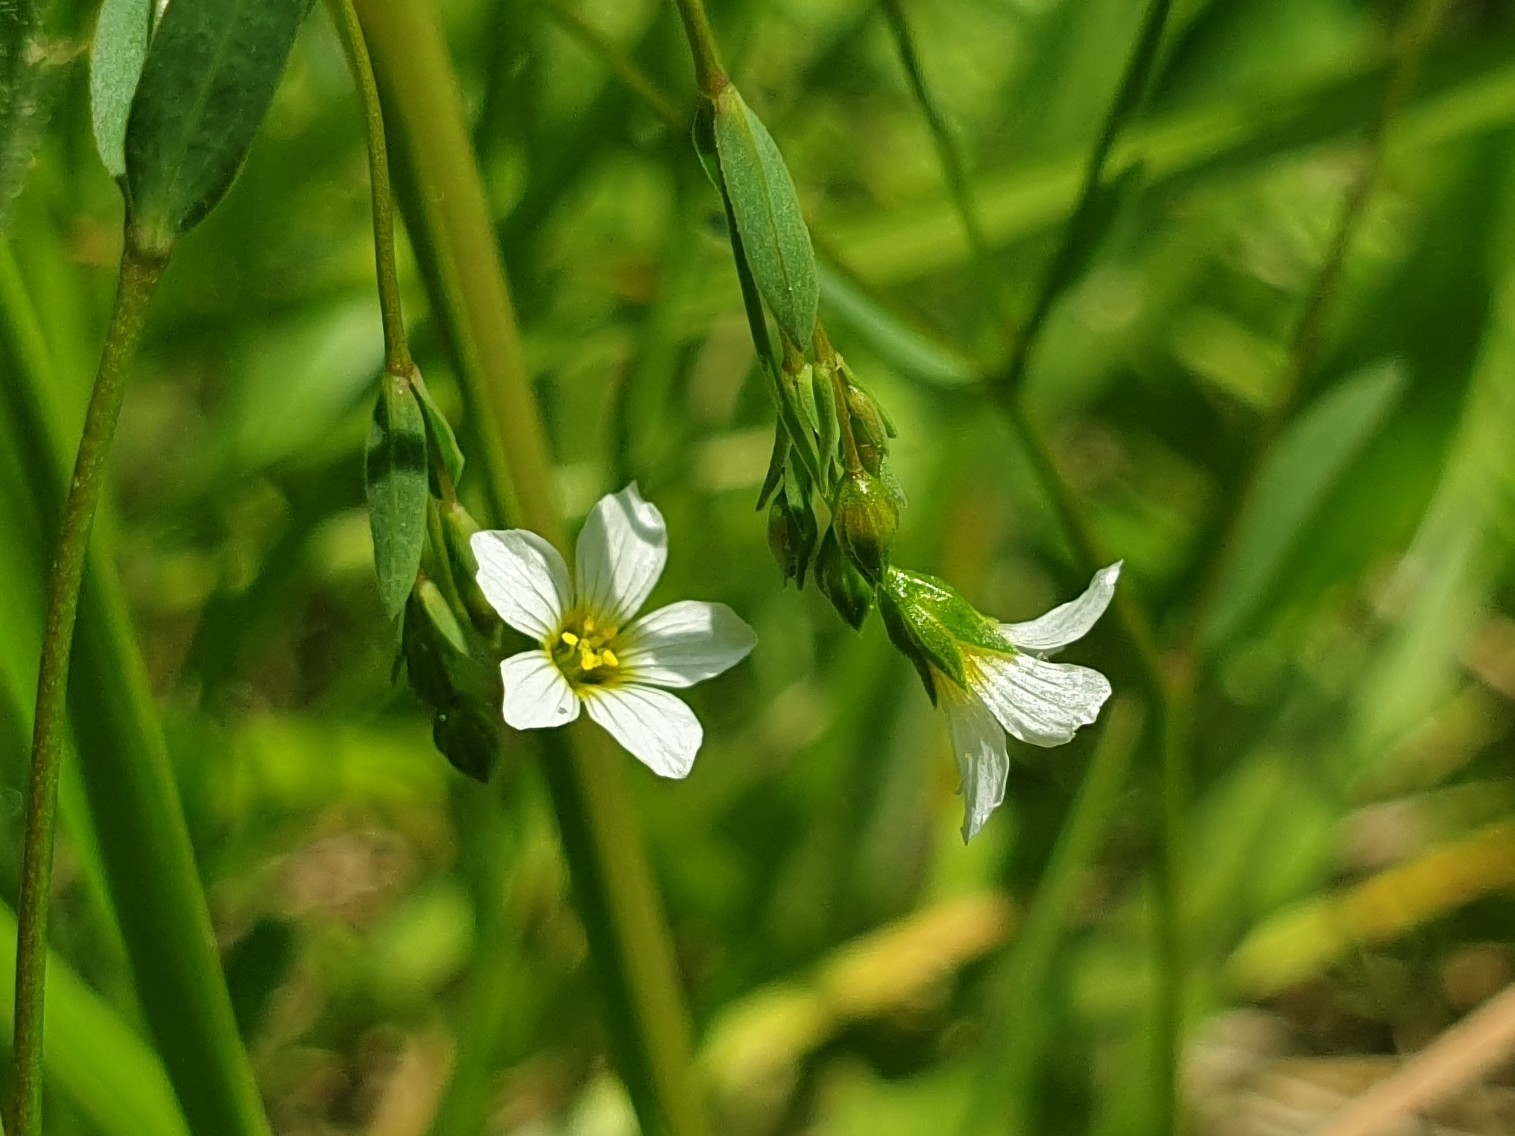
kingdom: Plantae
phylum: Tracheophyta
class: Magnoliopsida
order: Malpighiales
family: Linaceae
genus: Linum
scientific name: Linum catharticum
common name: Fairy flax
